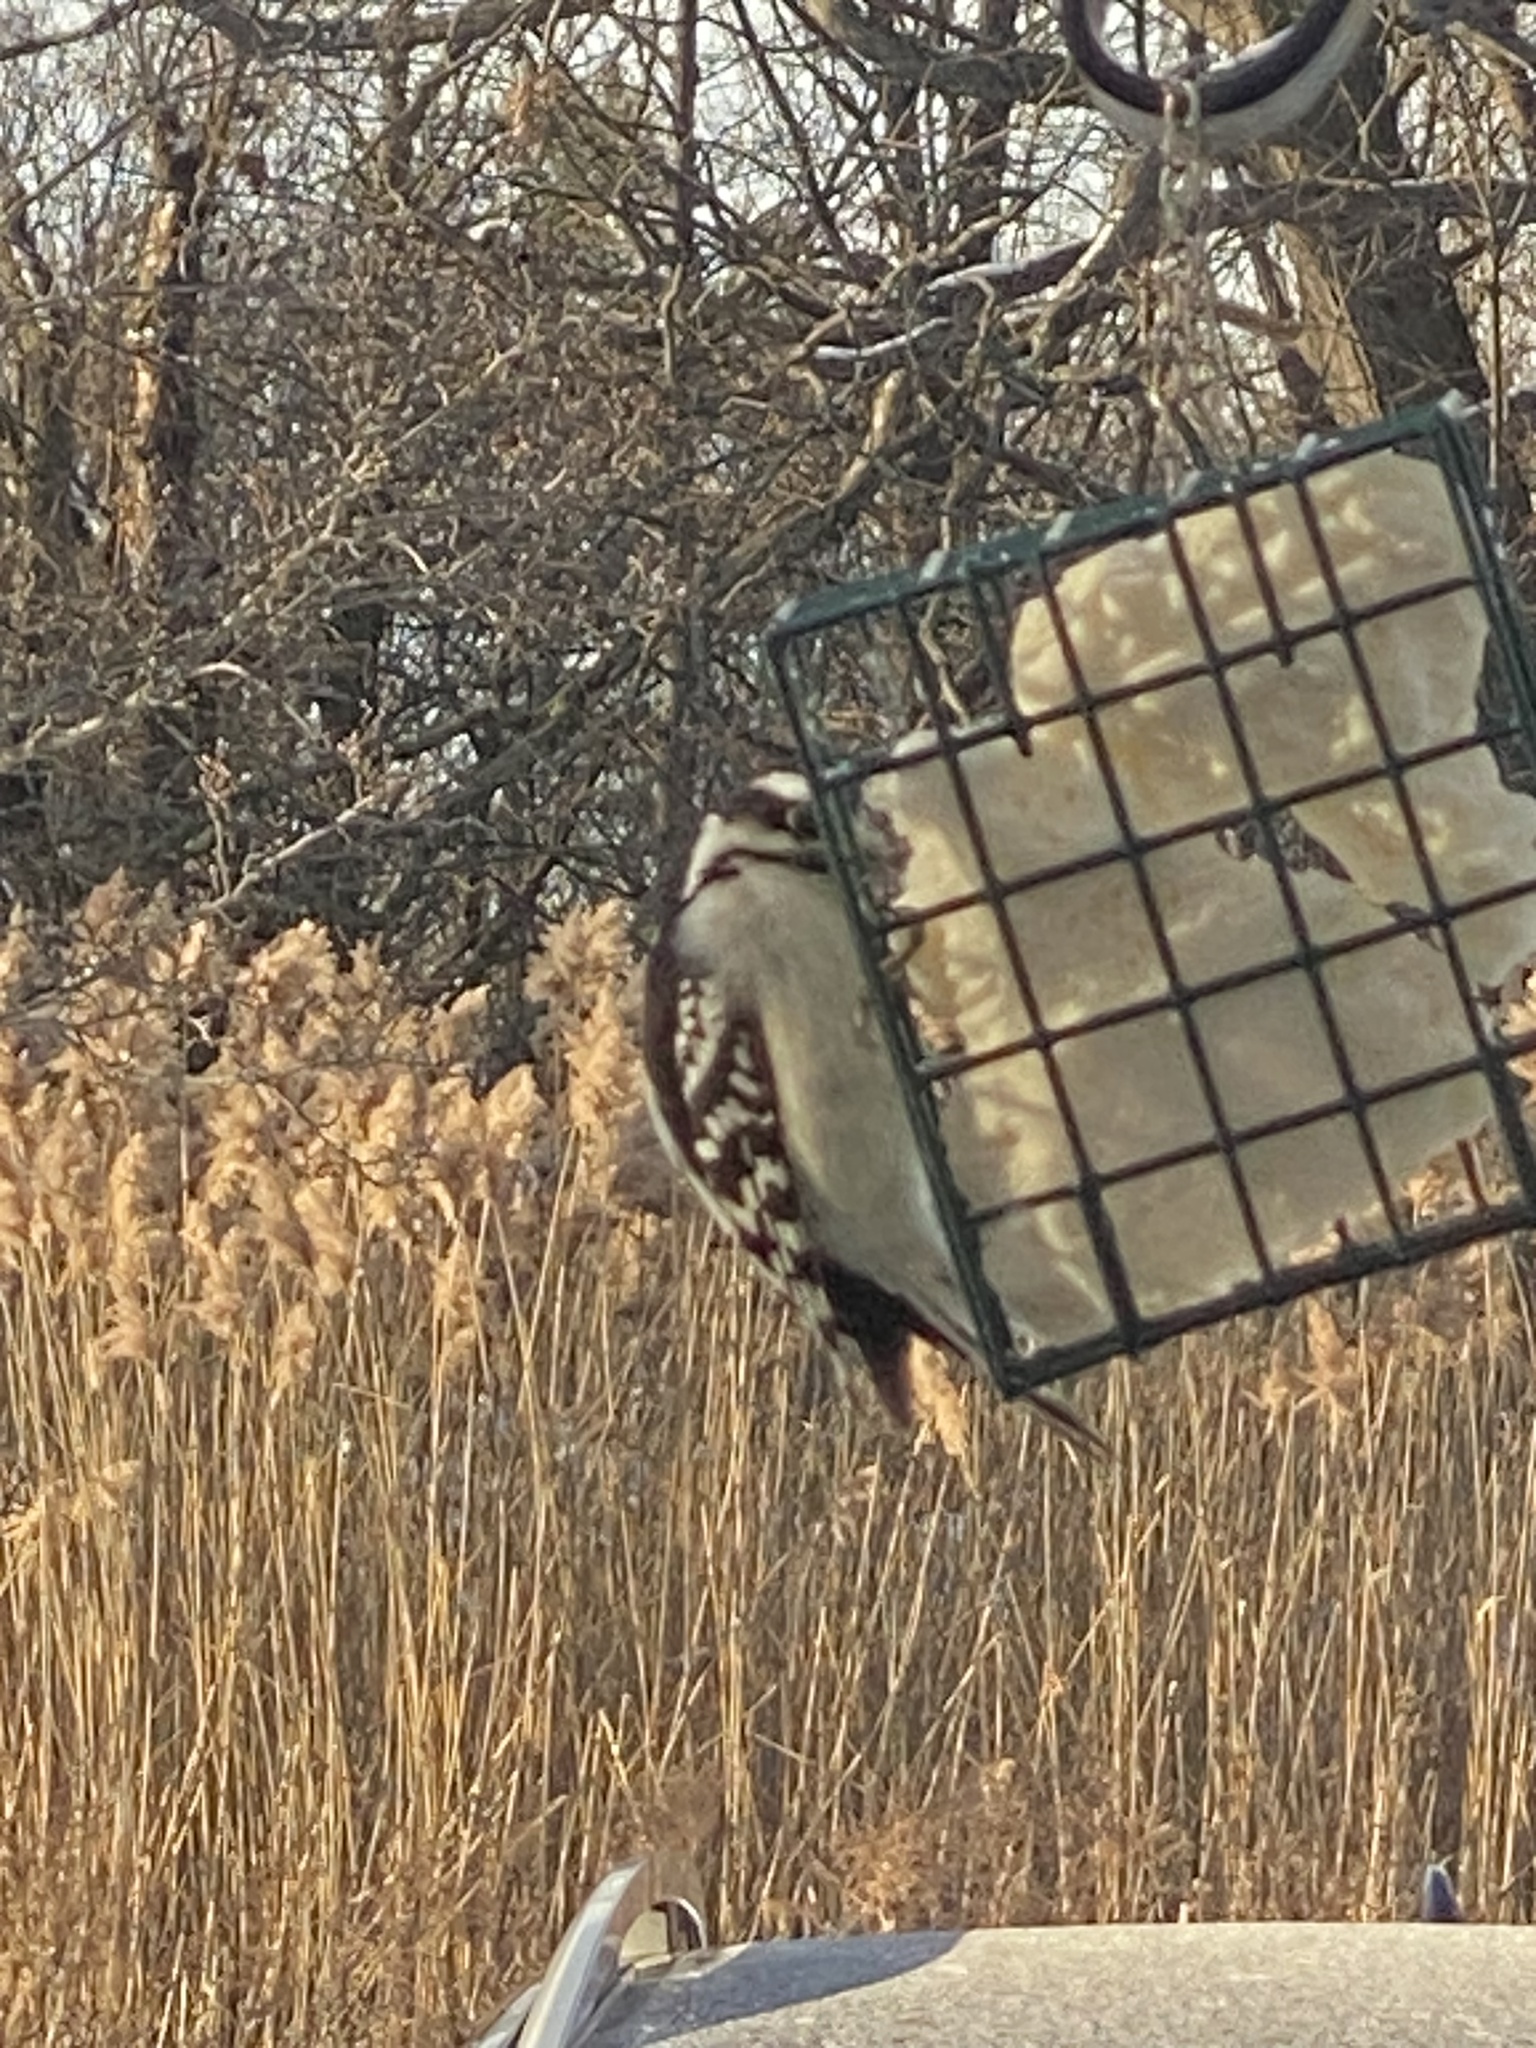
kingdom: Animalia
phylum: Chordata
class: Aves
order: Piciformes
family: Picidae
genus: Dryobates
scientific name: Dryobates pubescens
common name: Downy woodpecker
